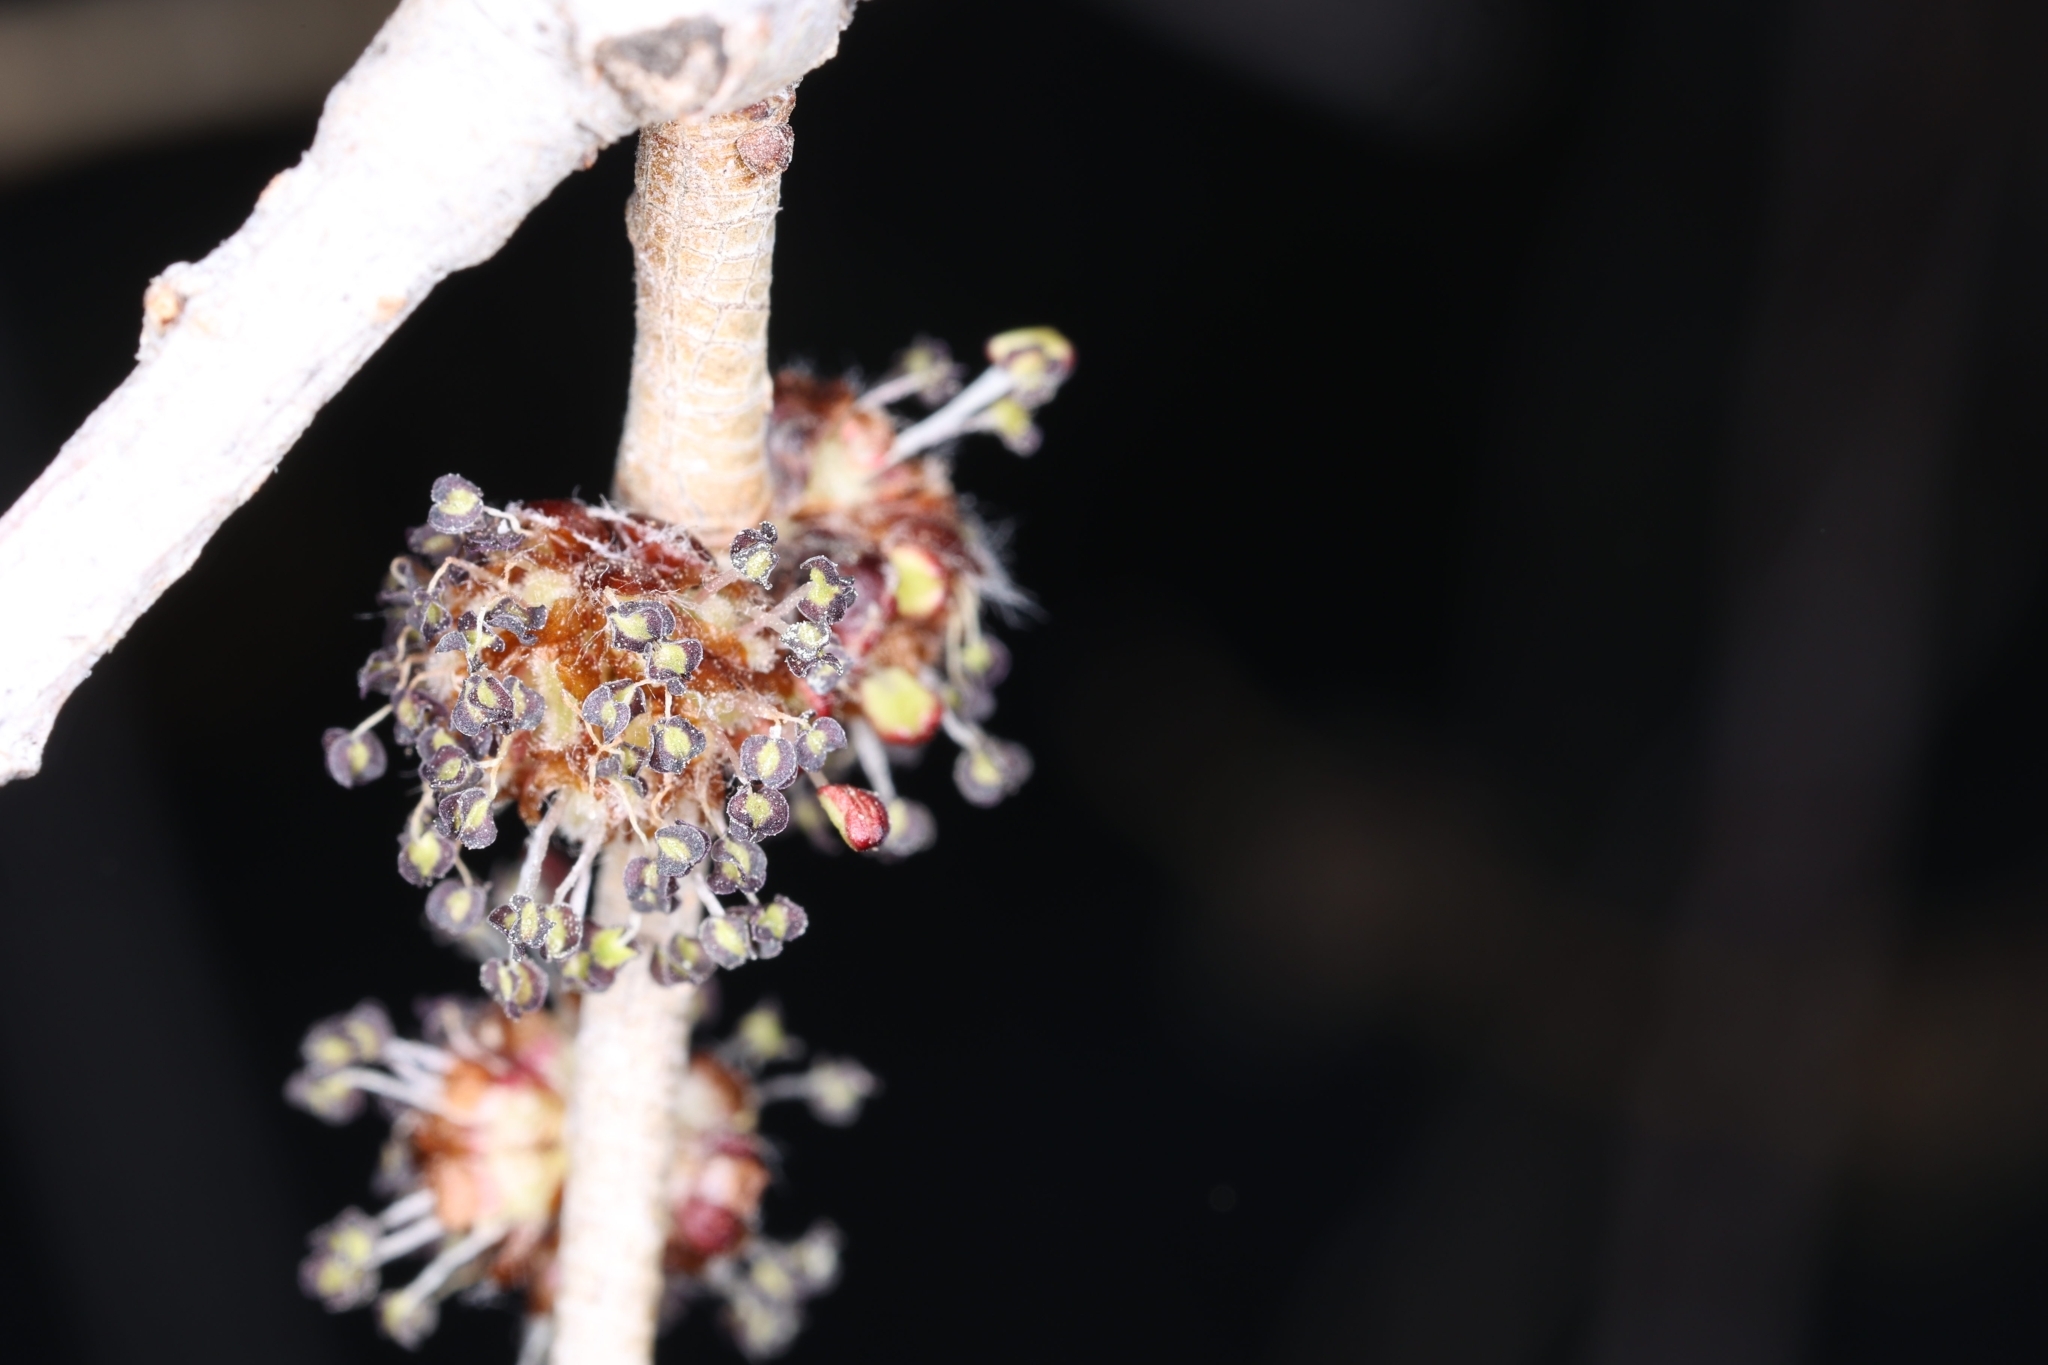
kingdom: Plantae
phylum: Tracheophyta
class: Magnoliopsida
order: Rosales
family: Ulmaceae
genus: Ulmus
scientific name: Ulmus pumila
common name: Siberian elm
